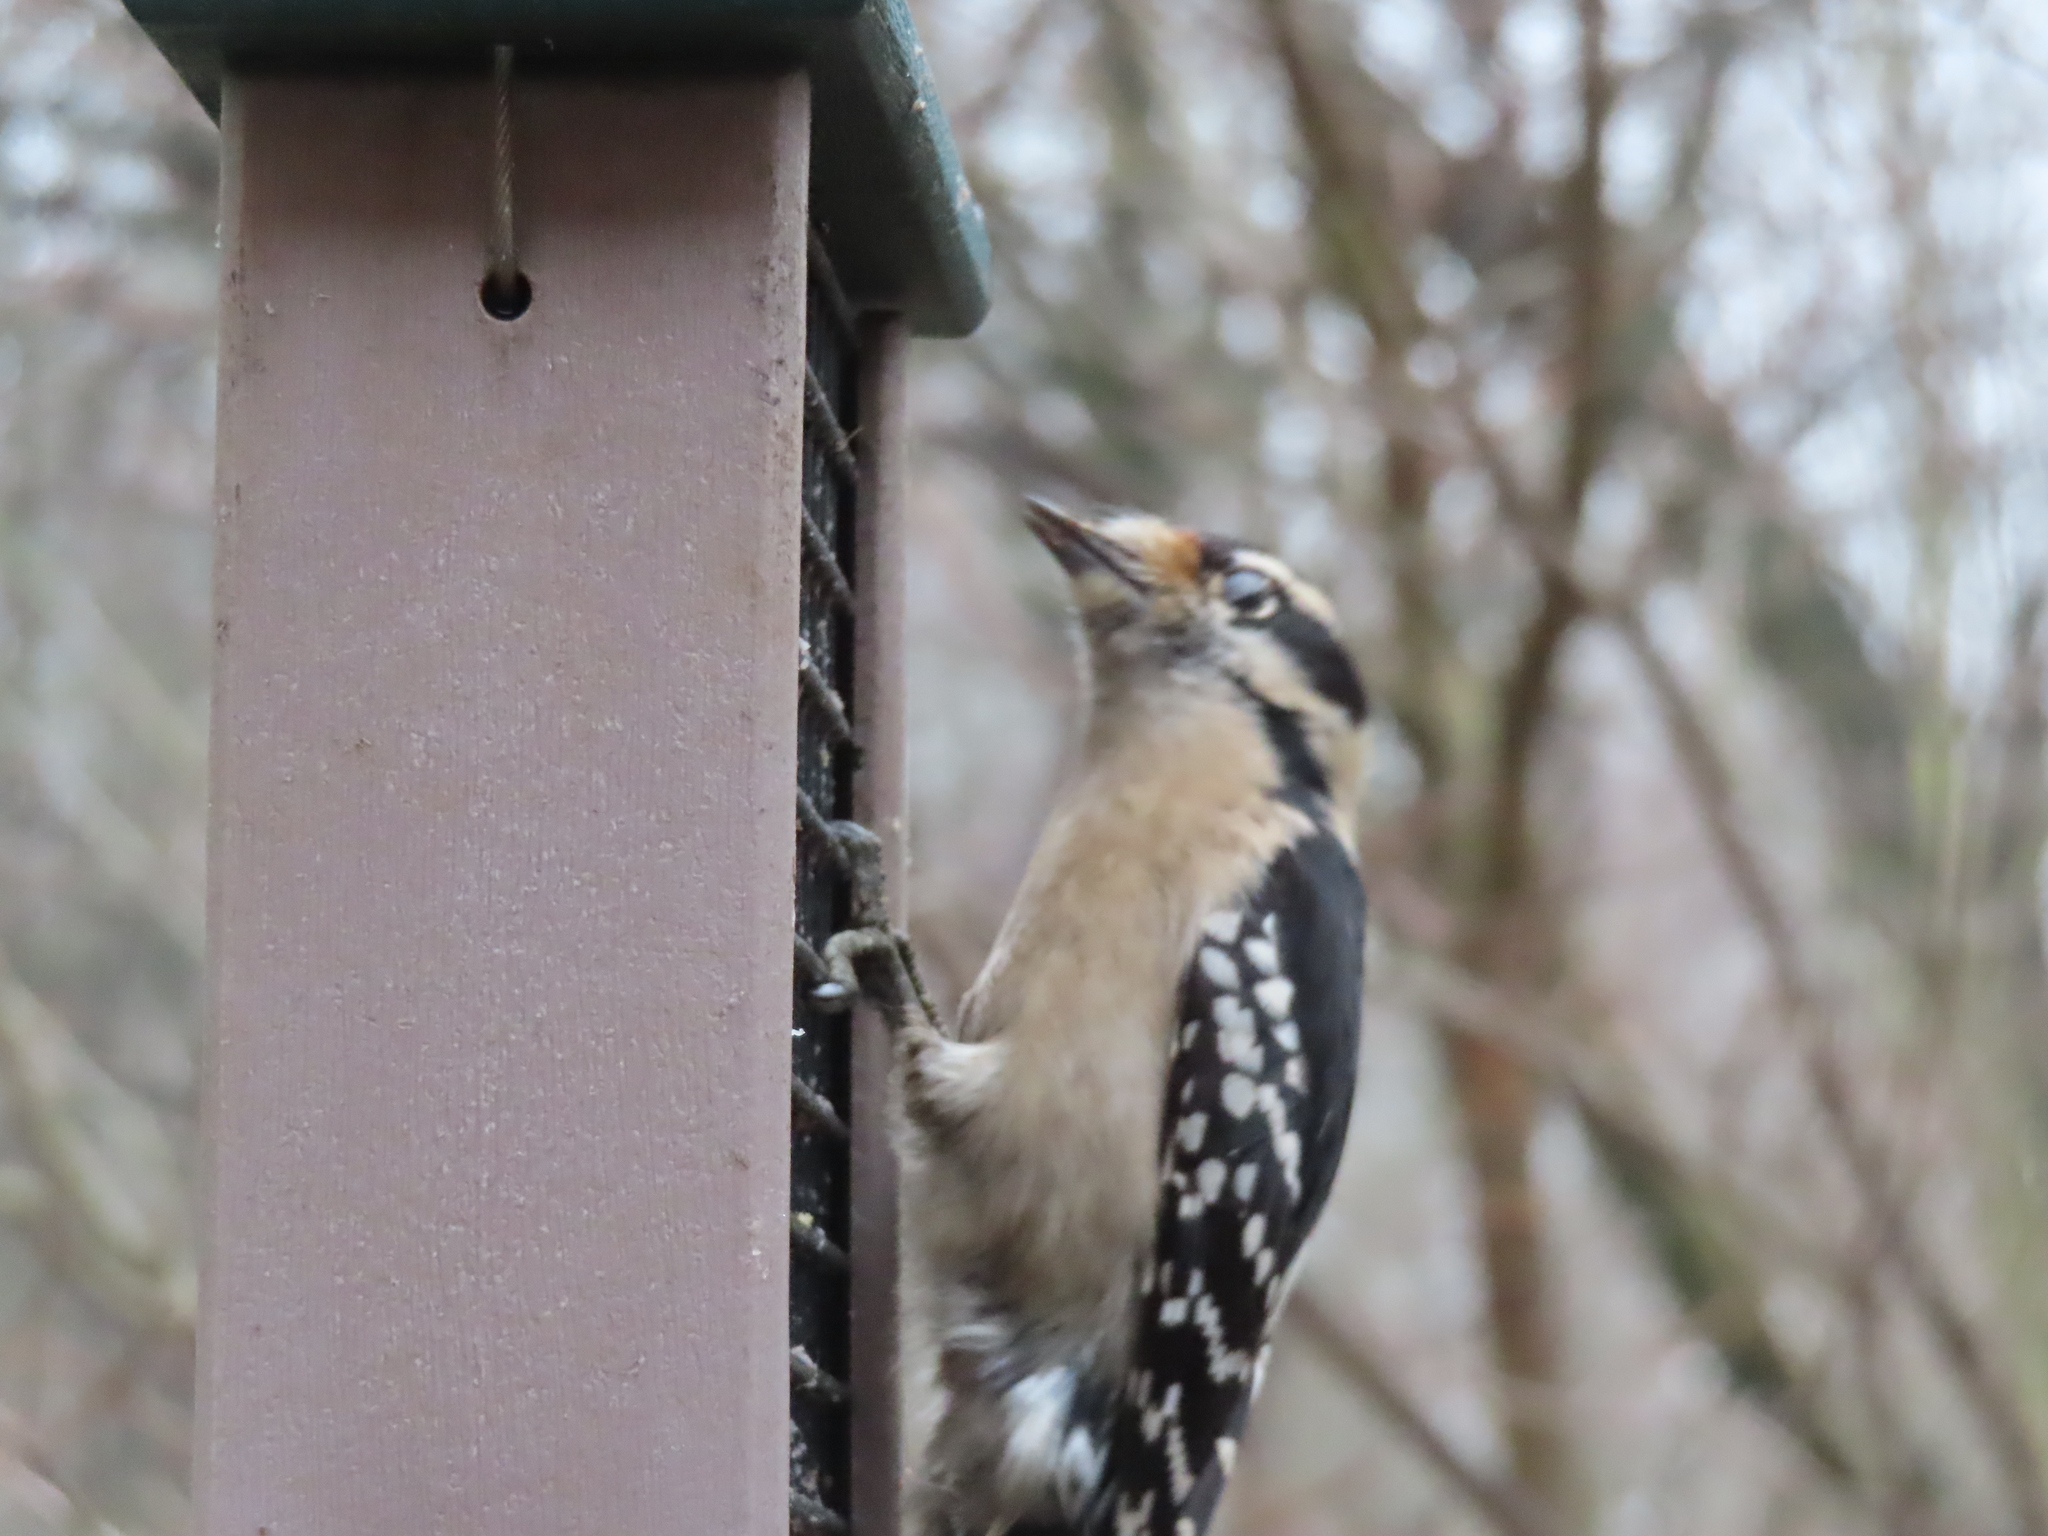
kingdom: Animalia
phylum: Chordata
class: Aves
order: Piciformes
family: Picidae
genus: Dryobates
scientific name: Dryobates pubescens
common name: Downy woodpecker
